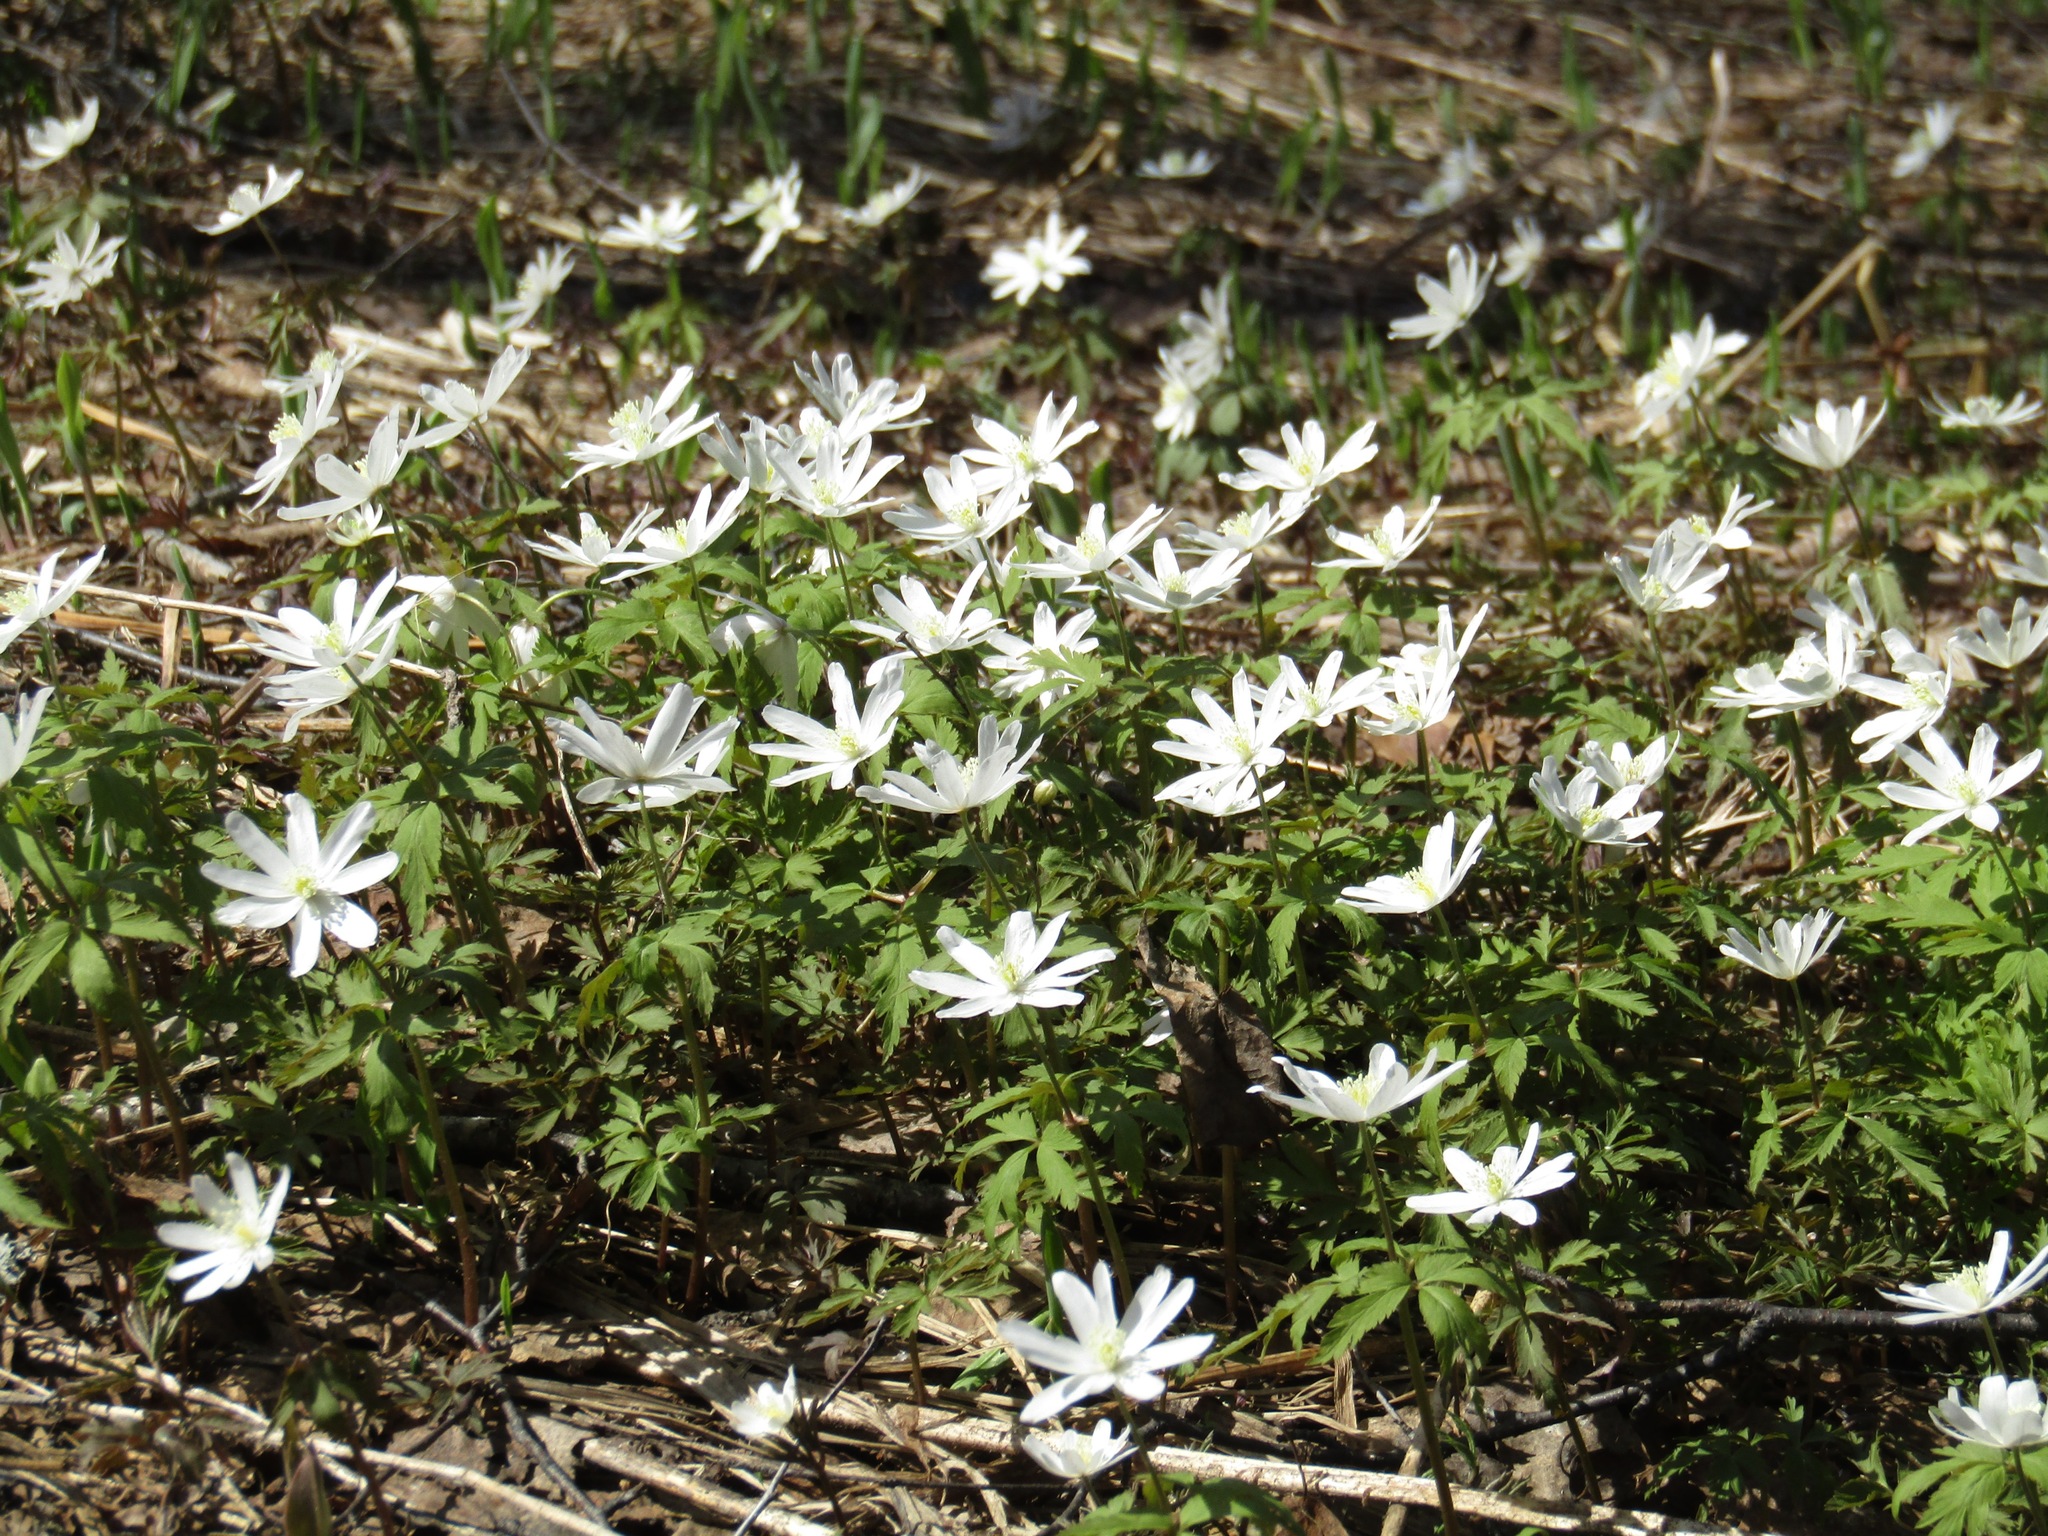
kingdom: Plantae
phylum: Tracheophyta
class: Magnoliopsida
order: Ranunculales
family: Ranunculaceae
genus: Anemone
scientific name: Anemone altaica
